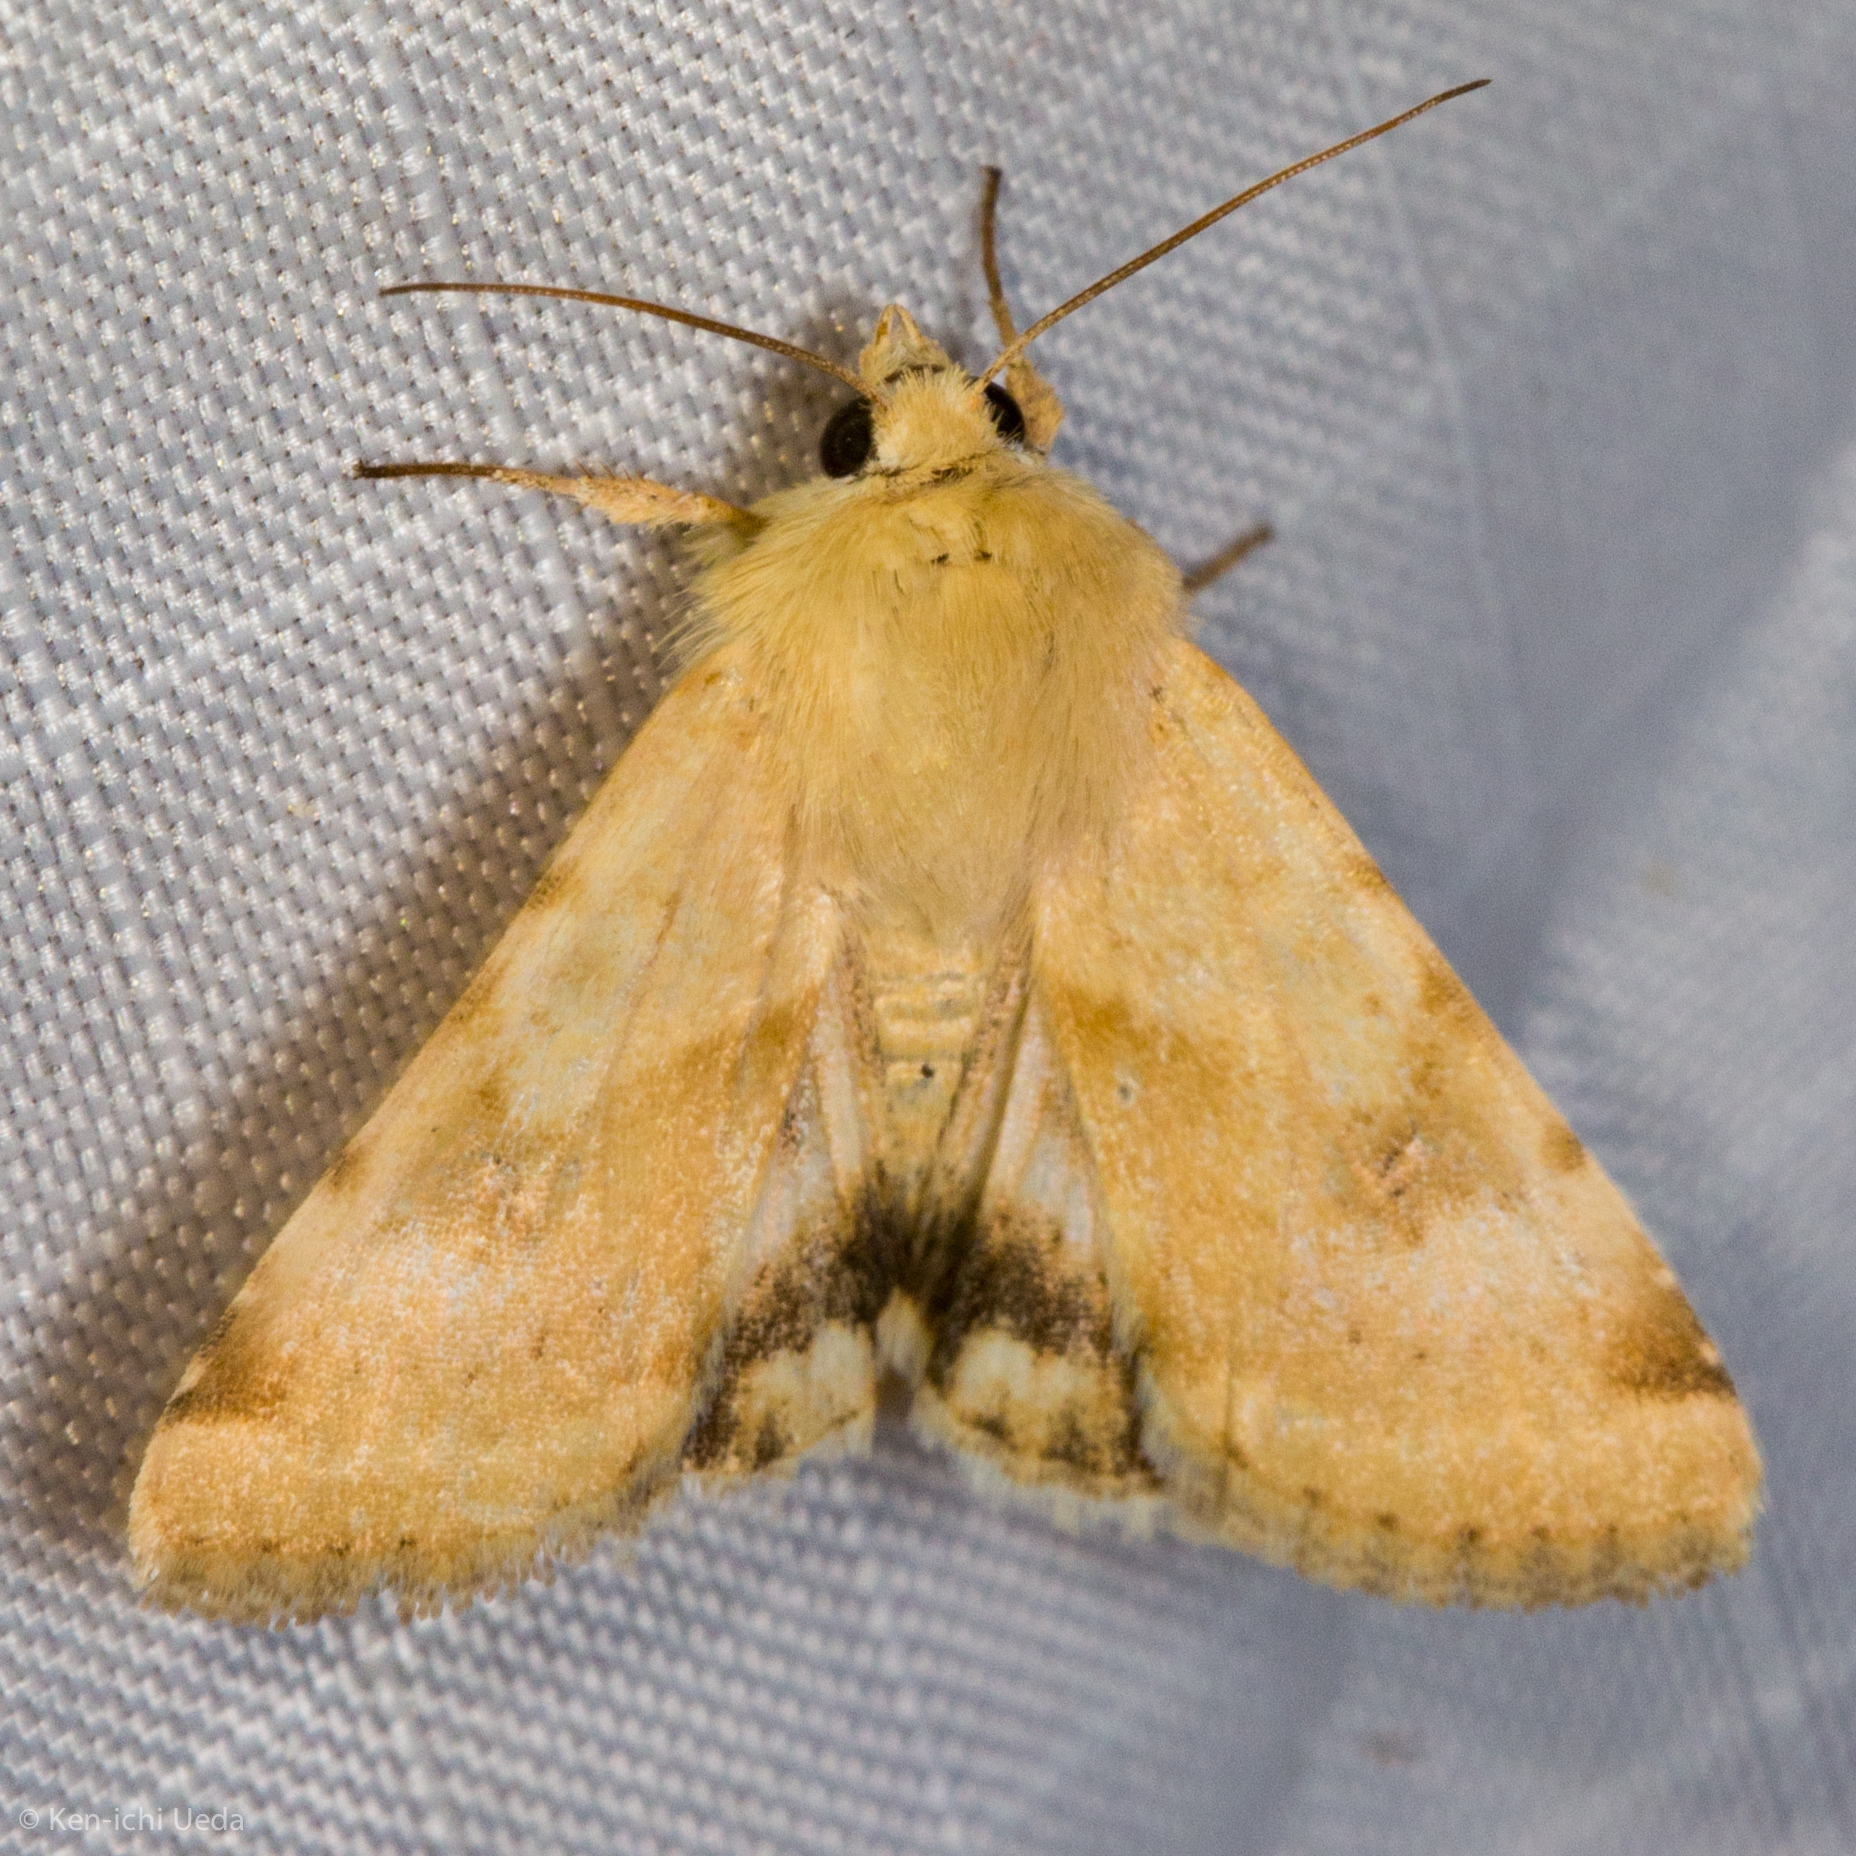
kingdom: Animalia
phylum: Arthropoda
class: Insecta
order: Lepidoptera
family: Noctuidae
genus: Heliothis
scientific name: Heliothis phloxiphaga
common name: Darker spotted straw moth
